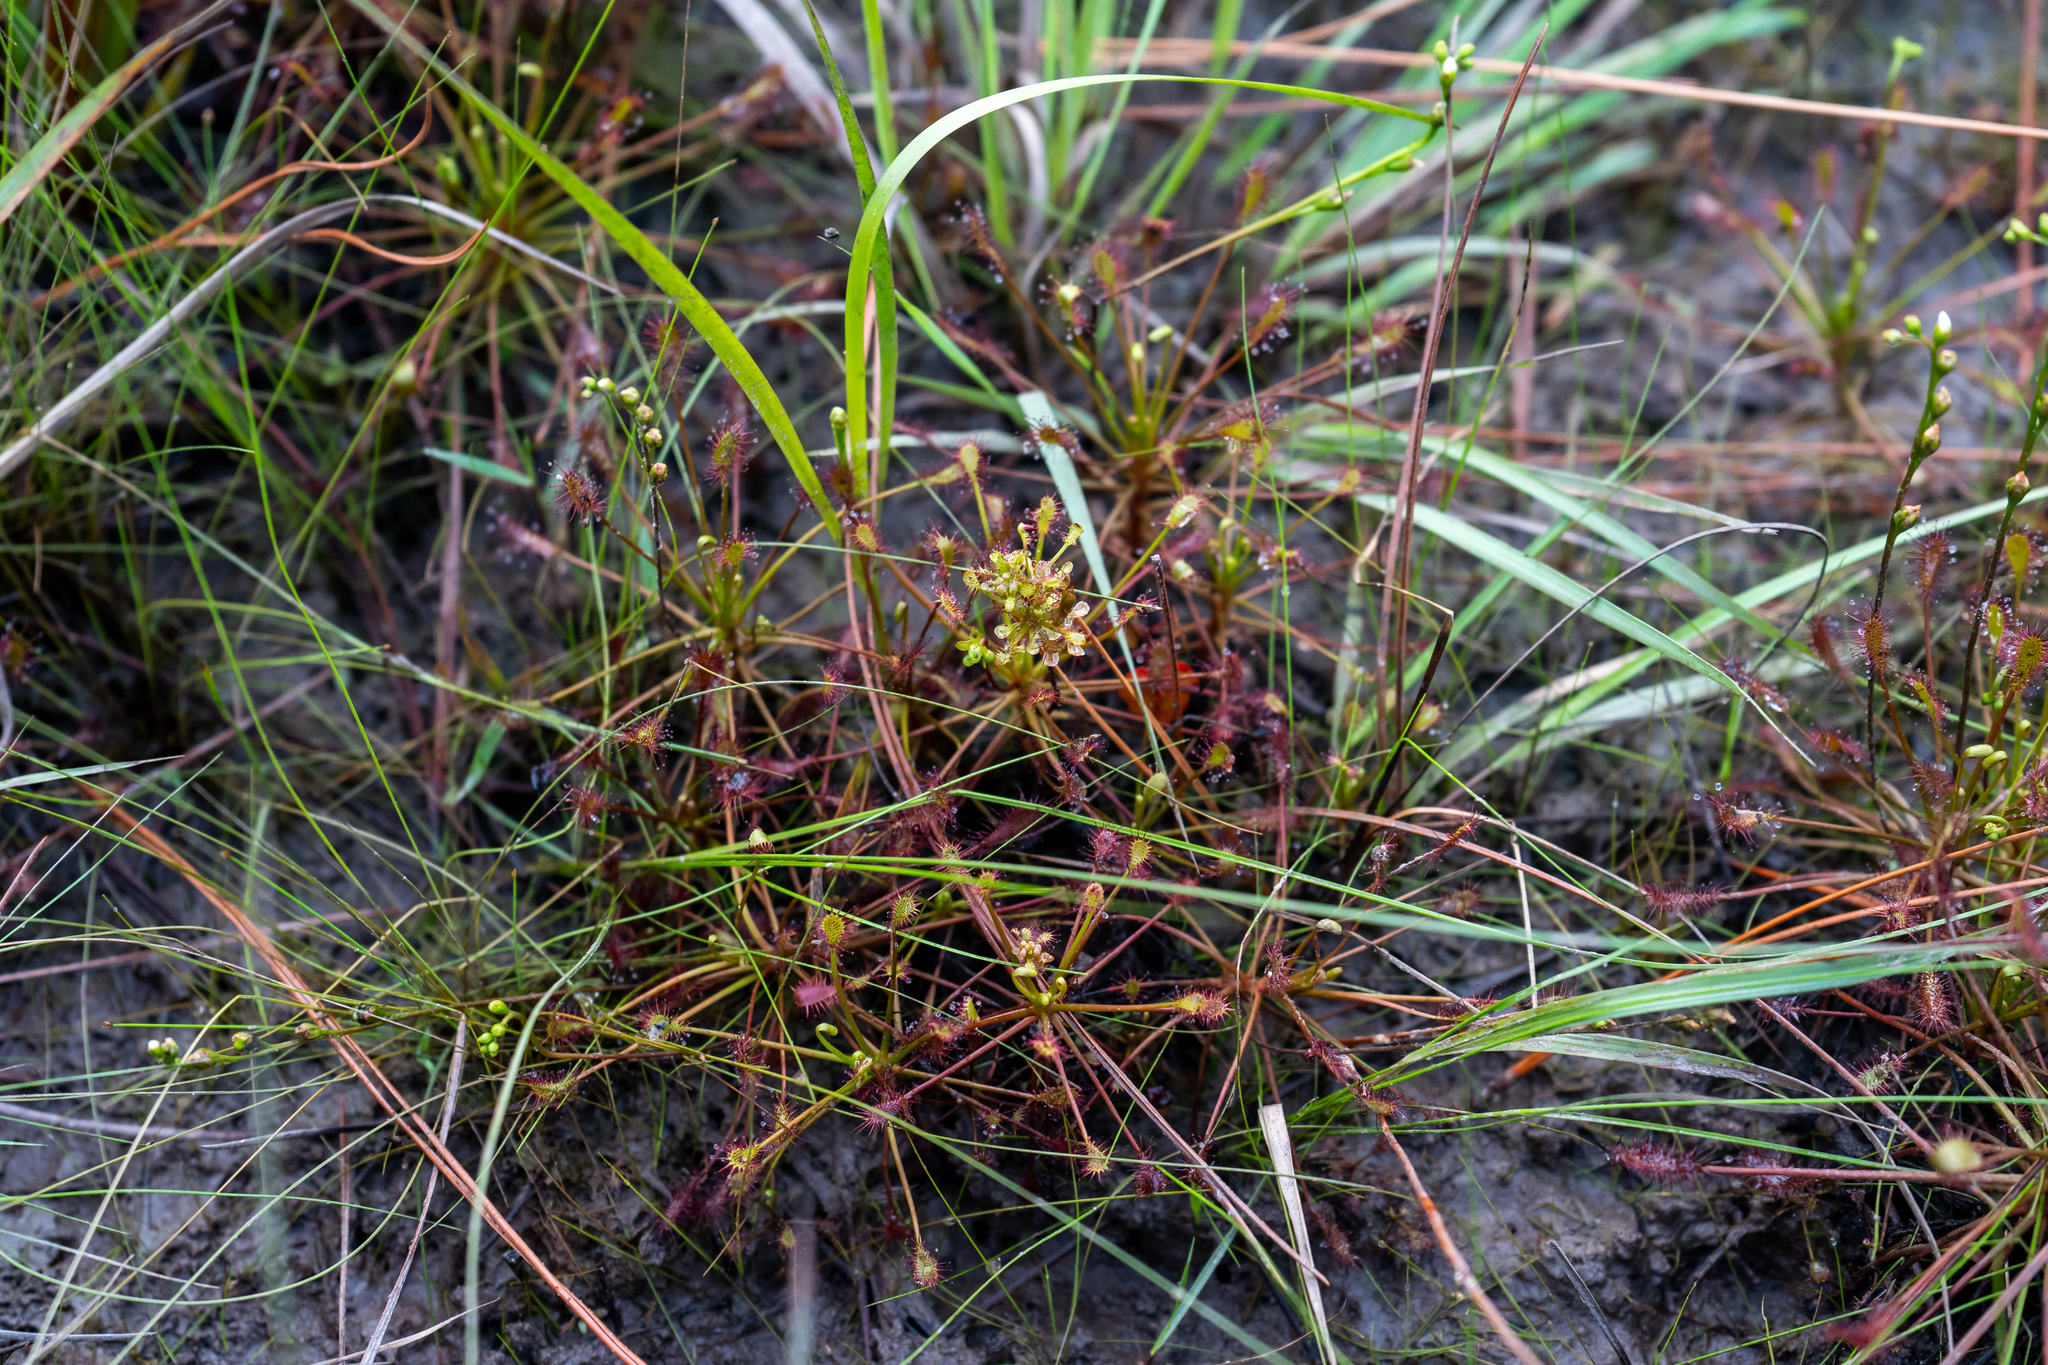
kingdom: Plantae
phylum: Tracheophyta
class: Magnoliopsida
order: Caryophyllales
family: Droseraceae
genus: Drosera
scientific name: Drosera intermedia
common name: Oblong-leaved sundew
